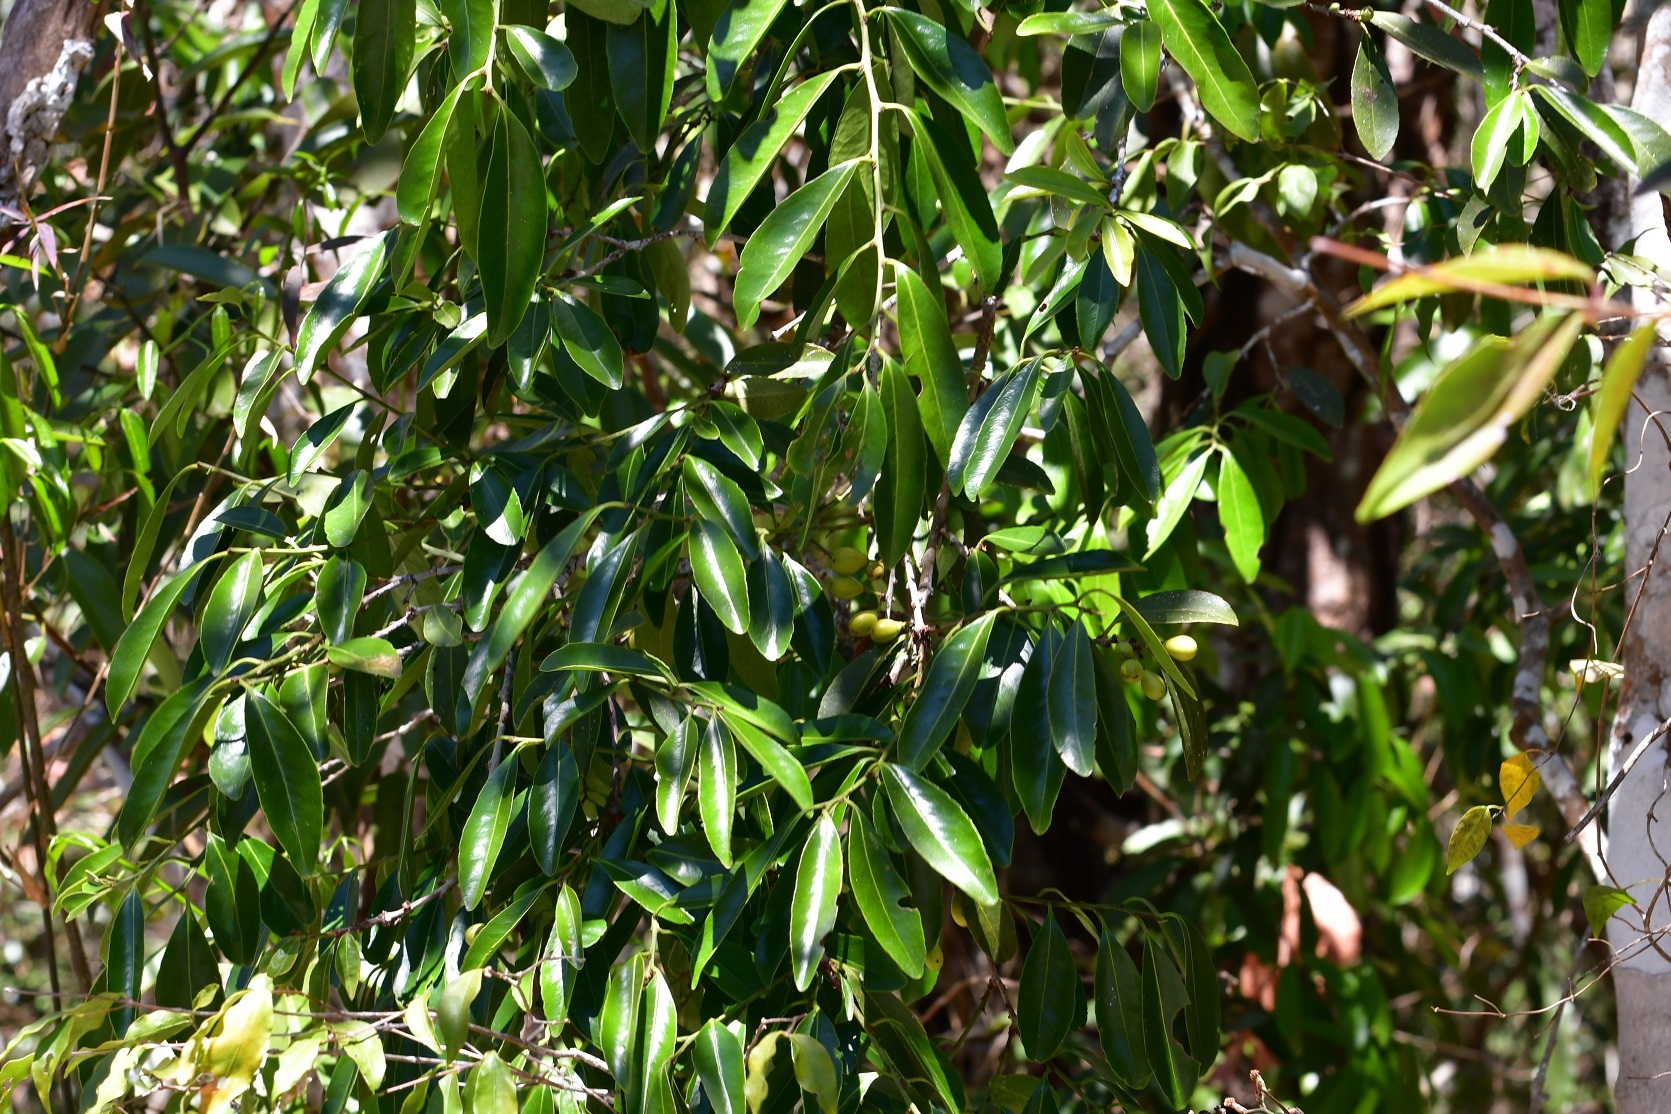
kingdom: Plantae
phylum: Tracheophyta
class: Magnoliopsida
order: Celastrales
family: Celastraceae
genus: Monteverdia
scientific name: Monteverdia stipitata
